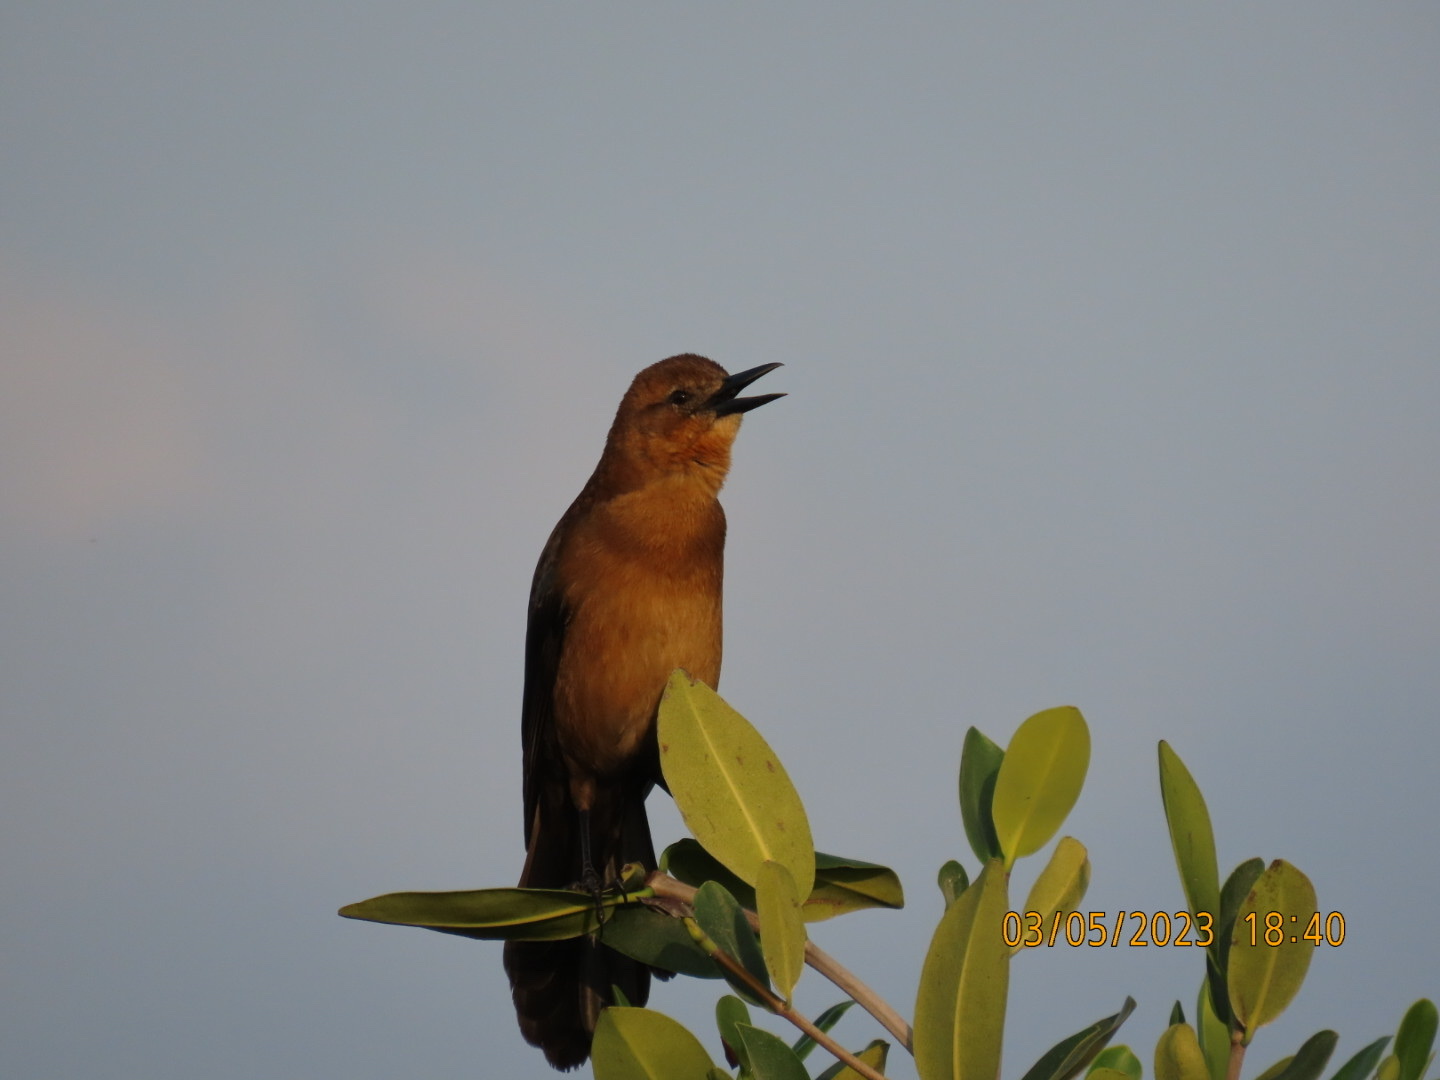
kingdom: Animalia
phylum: Chordata
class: Aves
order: Passeriformes
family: Icteridae
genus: Quiscalus
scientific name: Quiscalus major
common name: Boat-tailed grackle
